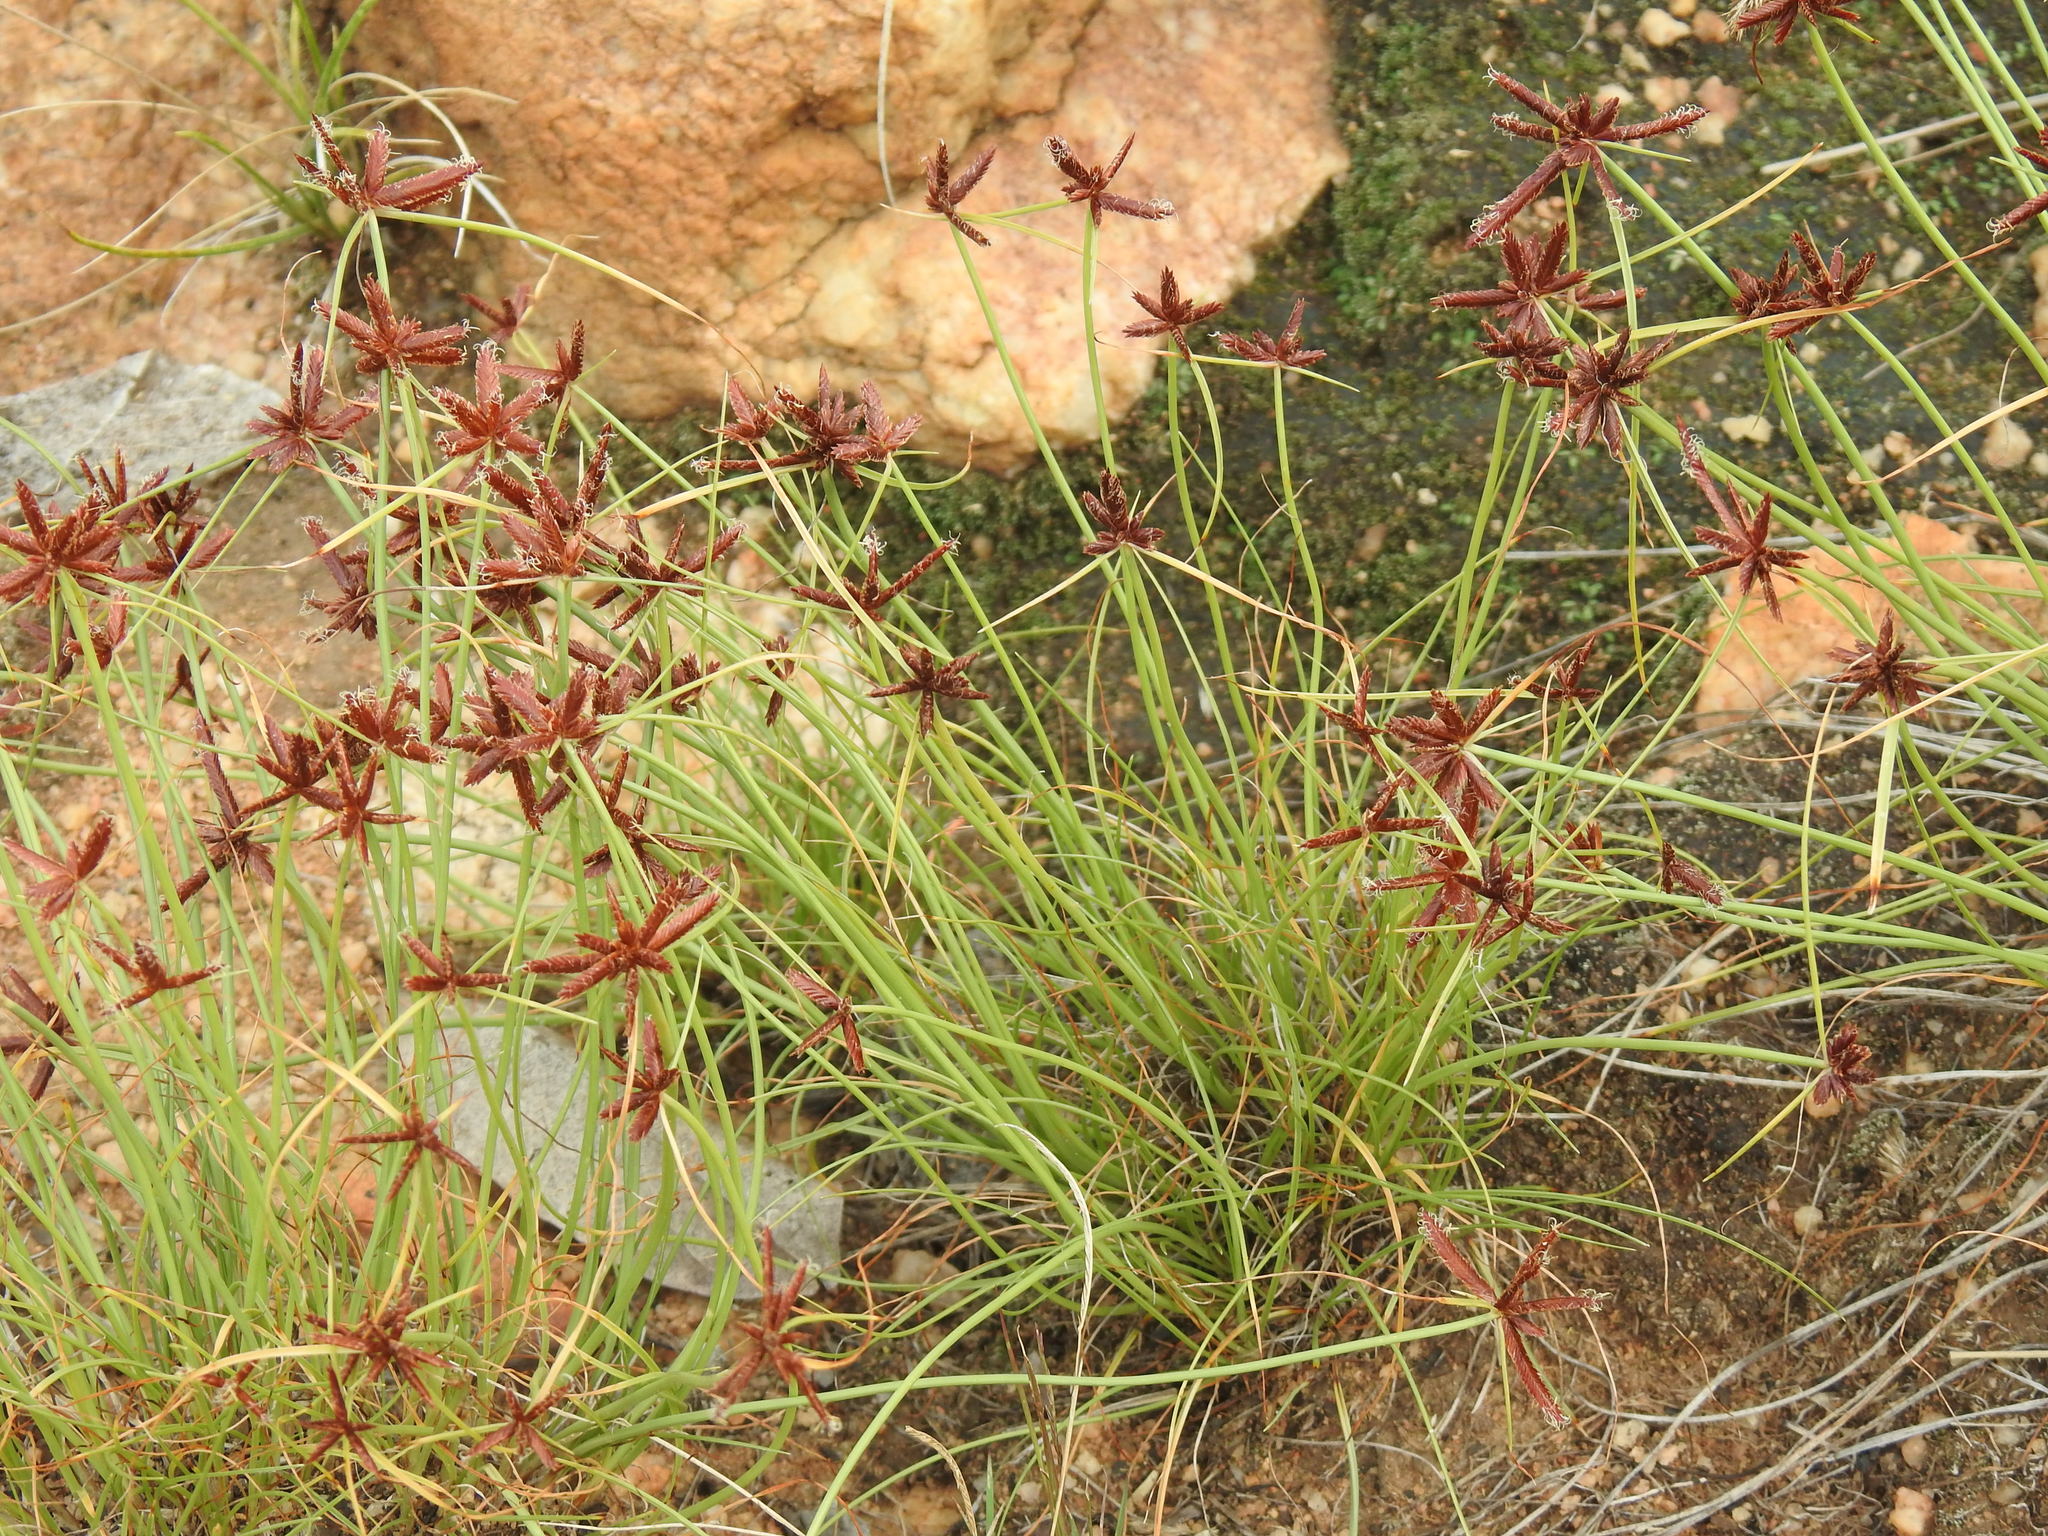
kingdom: Plantae
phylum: Tracheophyta
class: Liliopsida
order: Poales
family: Cyperaceae
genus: Cyperus
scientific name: Cyperus rupestris
